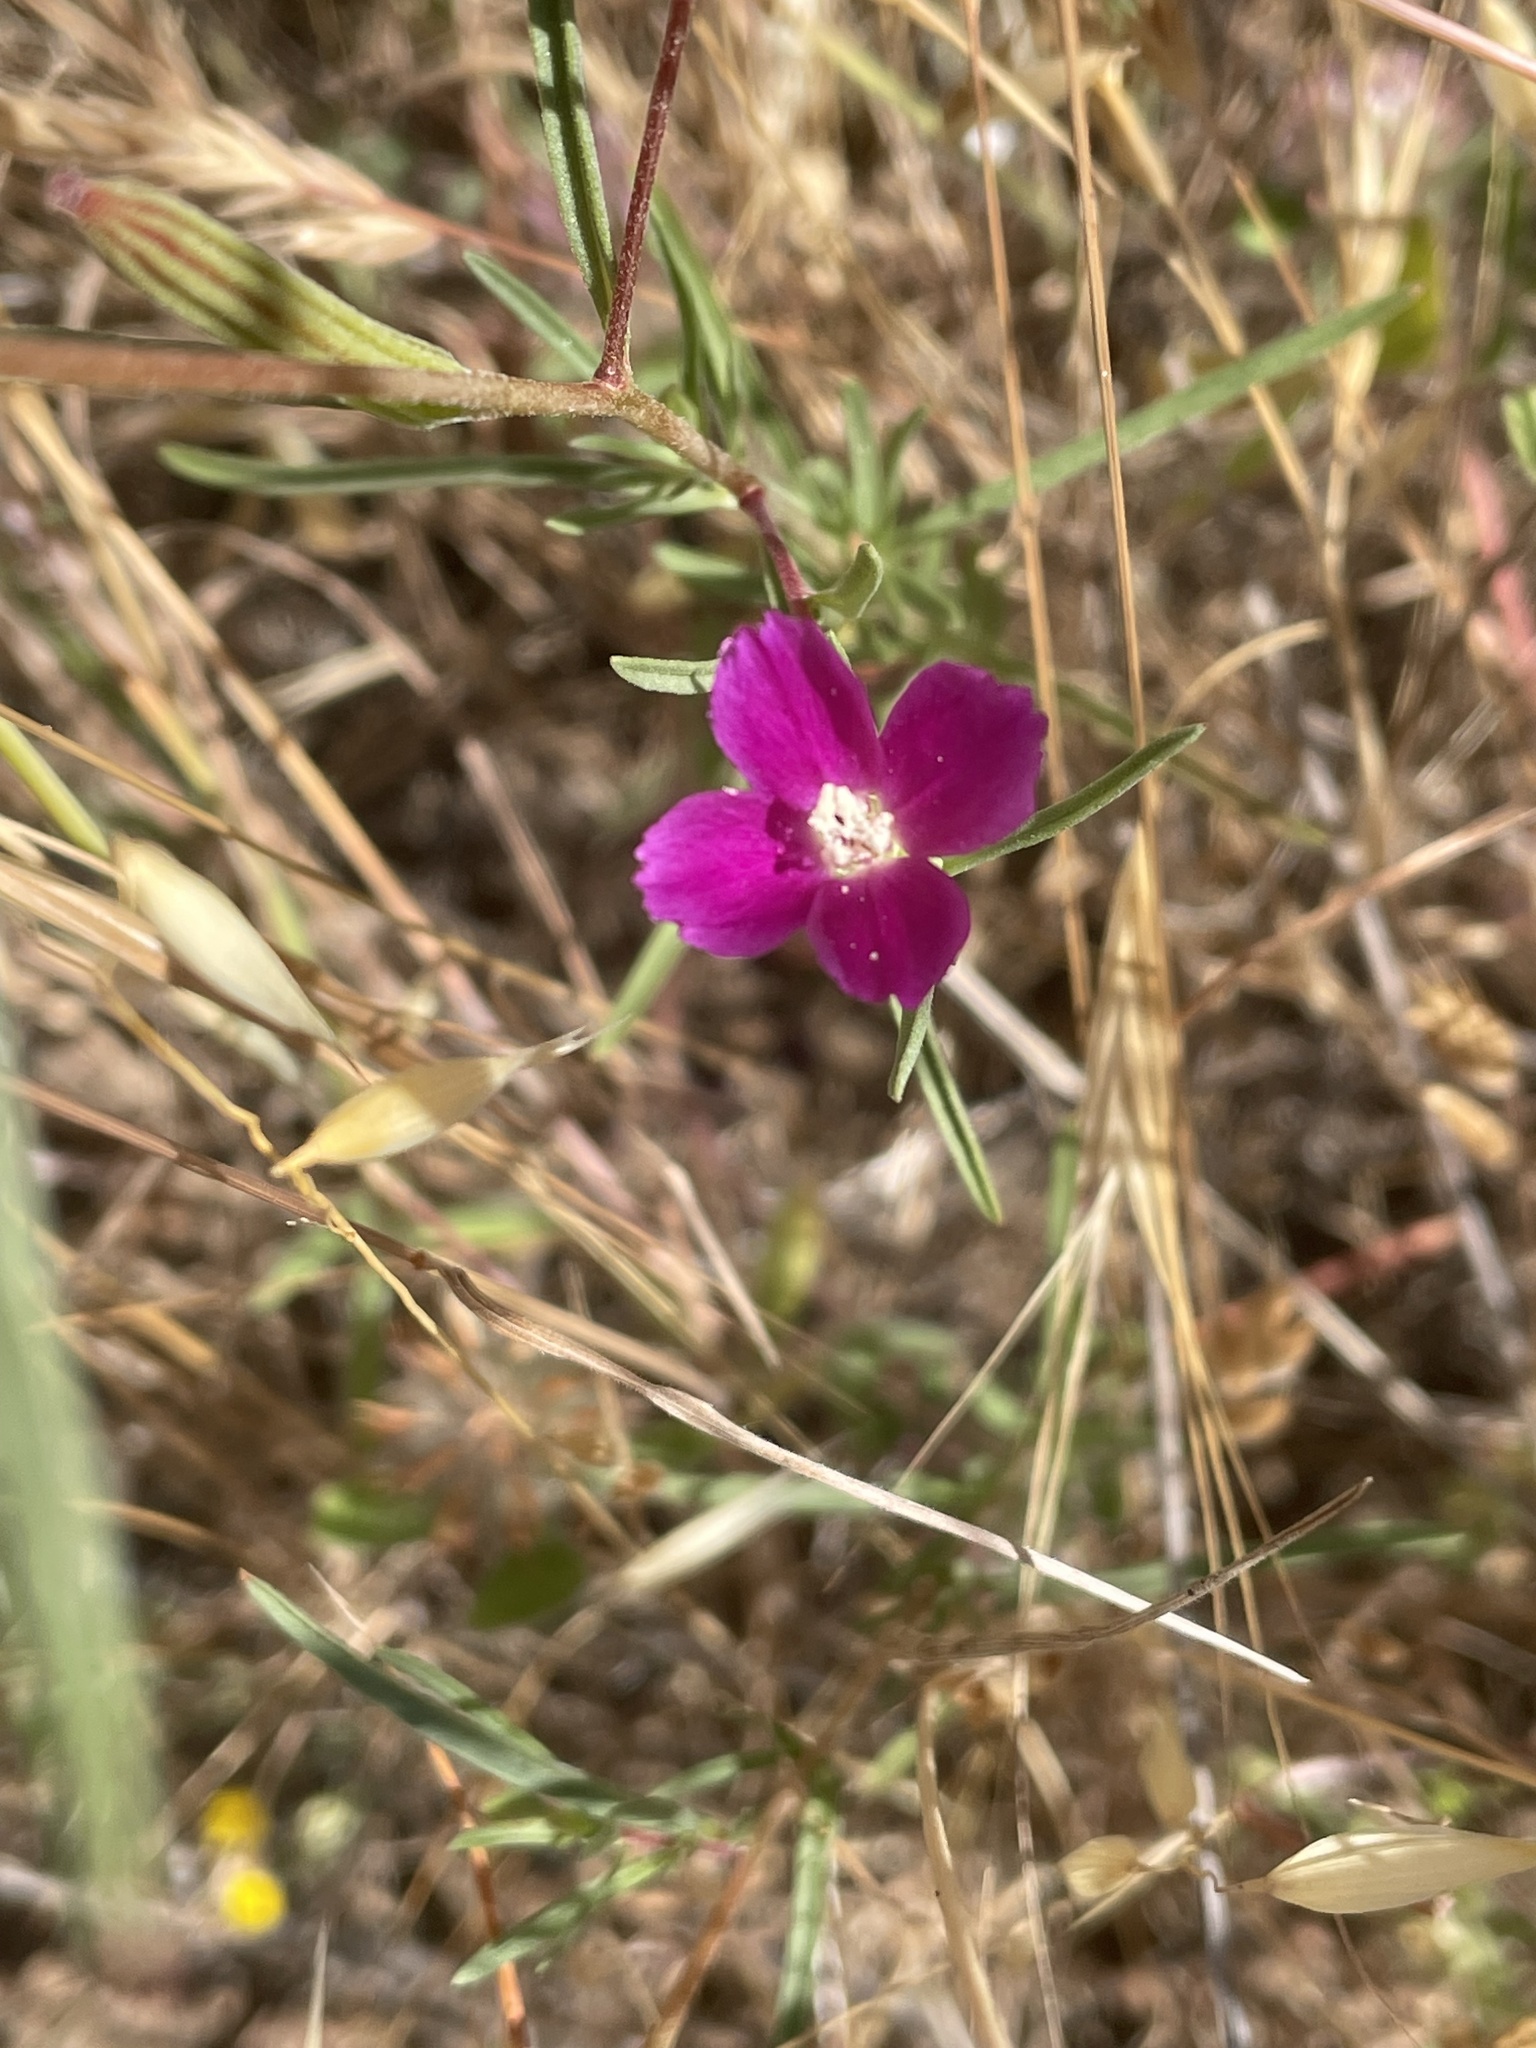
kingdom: Plantae
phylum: Tracheophyta
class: Magnoliopsida
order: Myrtales
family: Onagraceae
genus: Clarkia
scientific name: Clarkia purpurea
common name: Purple clarkia
